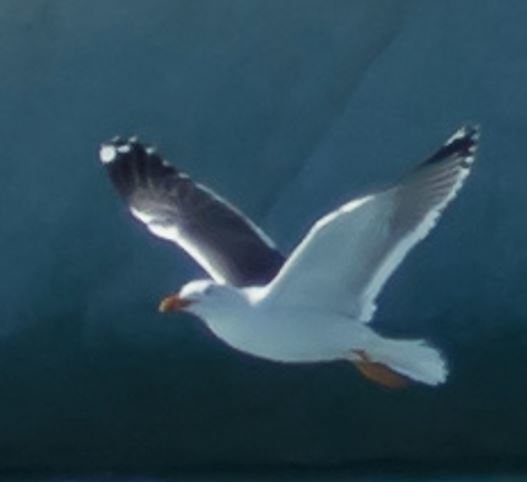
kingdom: Animalia
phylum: Chordata
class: Aves
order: Charadriiformes
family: Laridae
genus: Larus
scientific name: Larus fuscus
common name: Lesser black-backed gull
